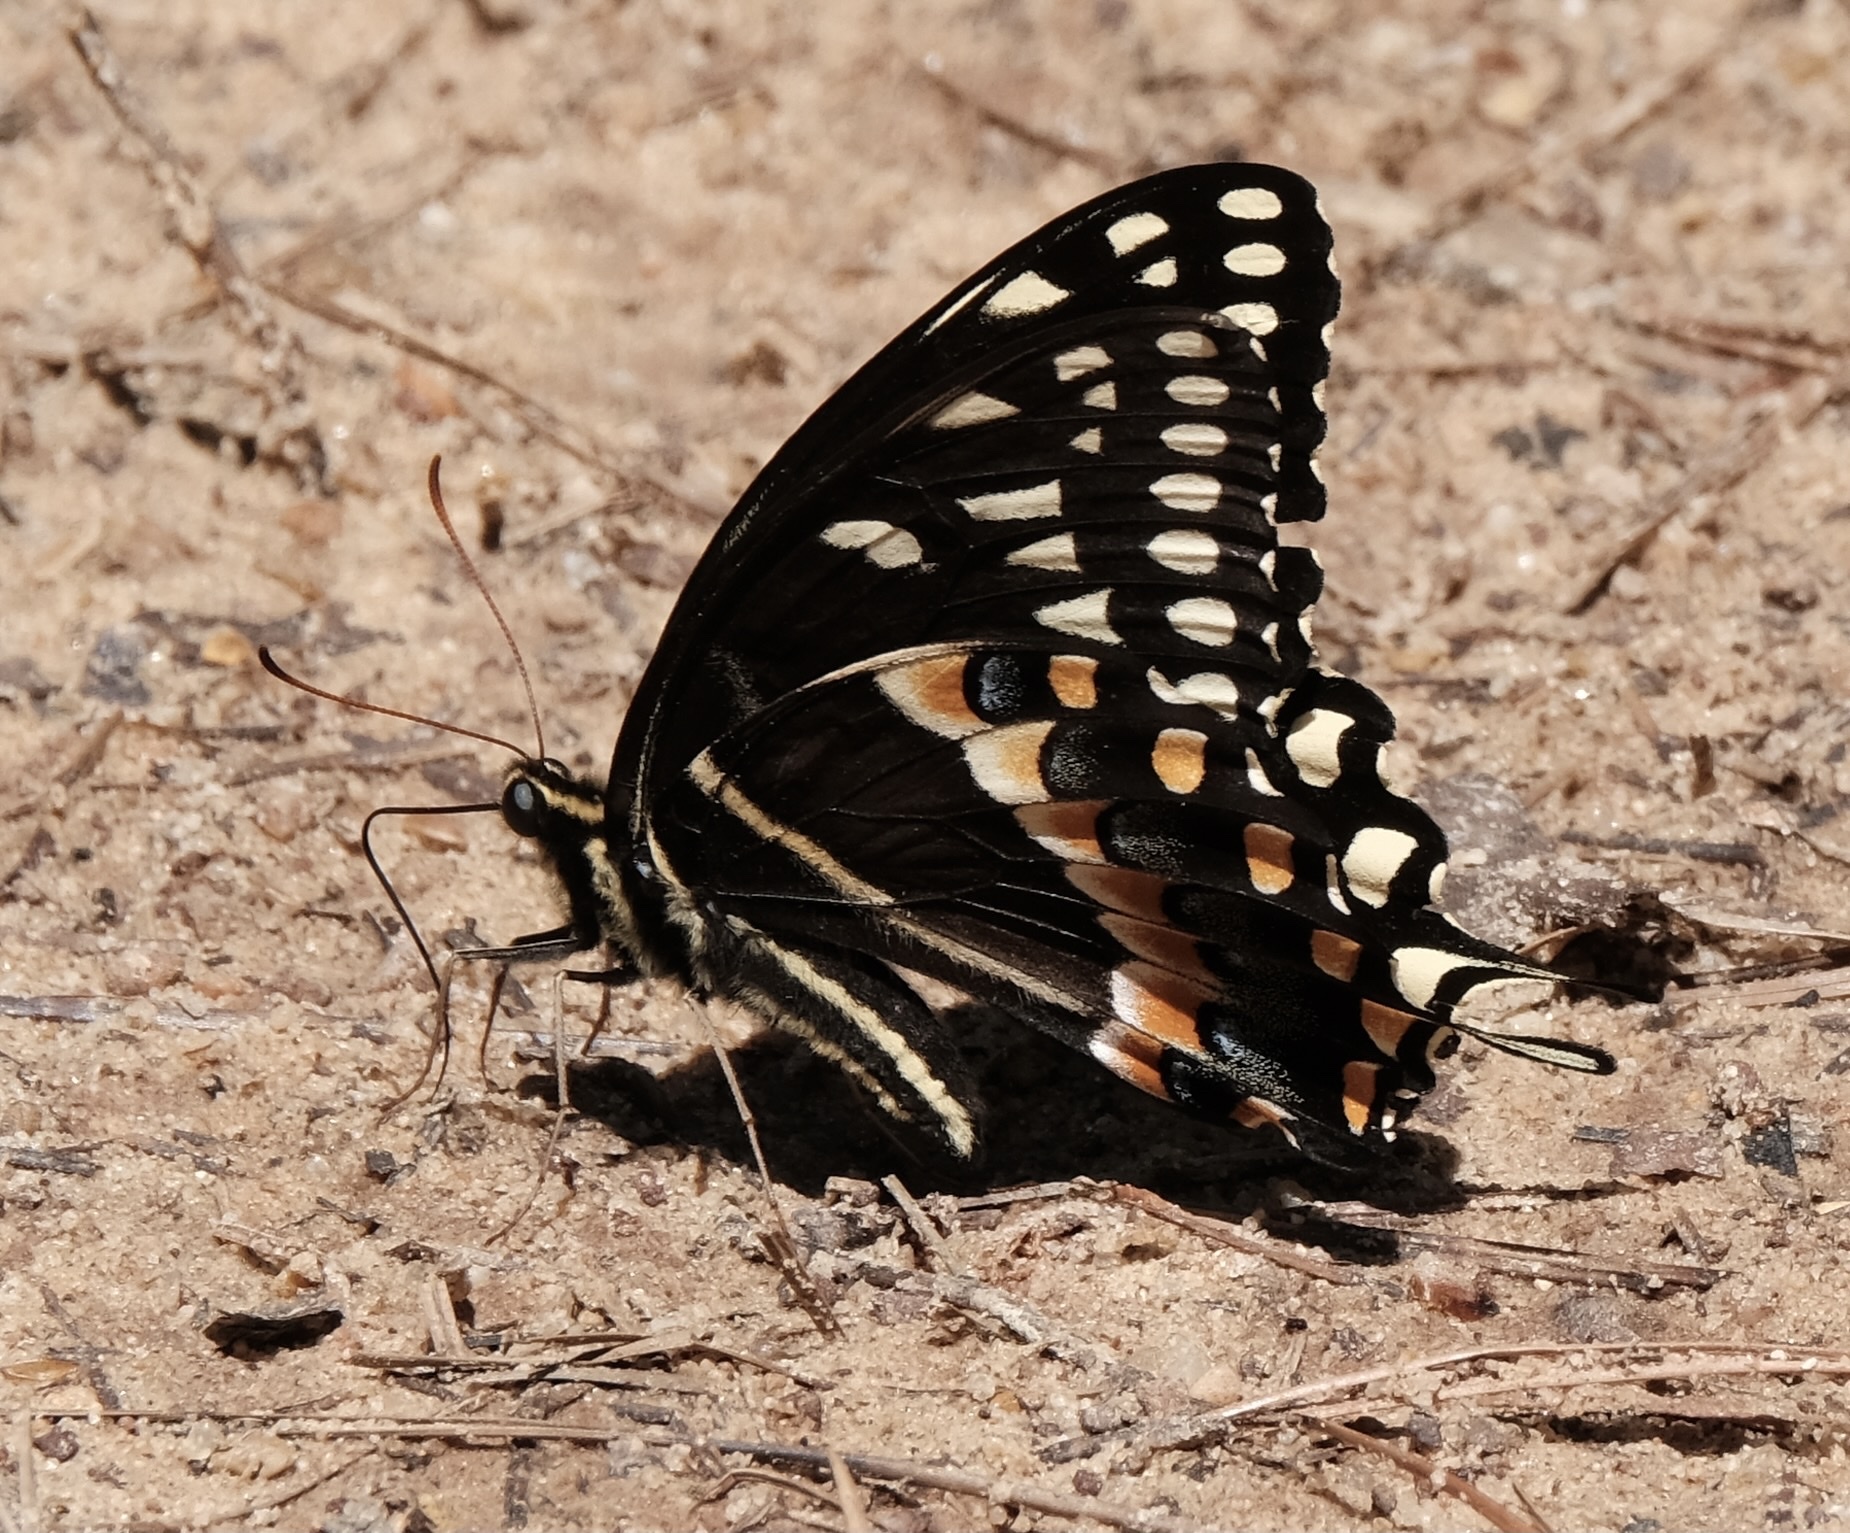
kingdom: Animalia
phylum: Arthropoda
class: Insecta
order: Lepidoptera
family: Papilionidae
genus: Papilio
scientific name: Papilio palamedes
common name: Palamedes swallowtail
